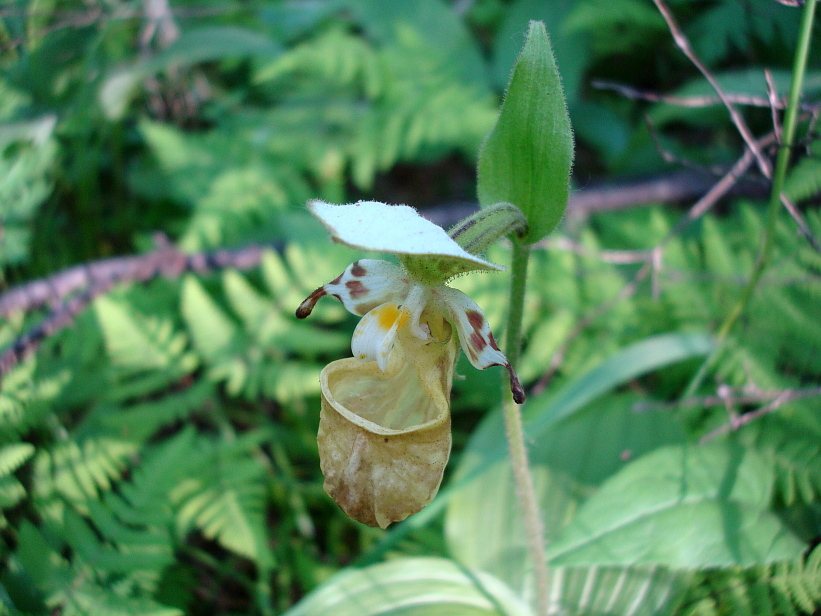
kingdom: Plantae
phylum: Tracheophyta
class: Liliopsida
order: Asparagales
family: Orchidaceae
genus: Cypripedium
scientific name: Cypripedium yatabeanum
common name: Spotted lady's slipper
